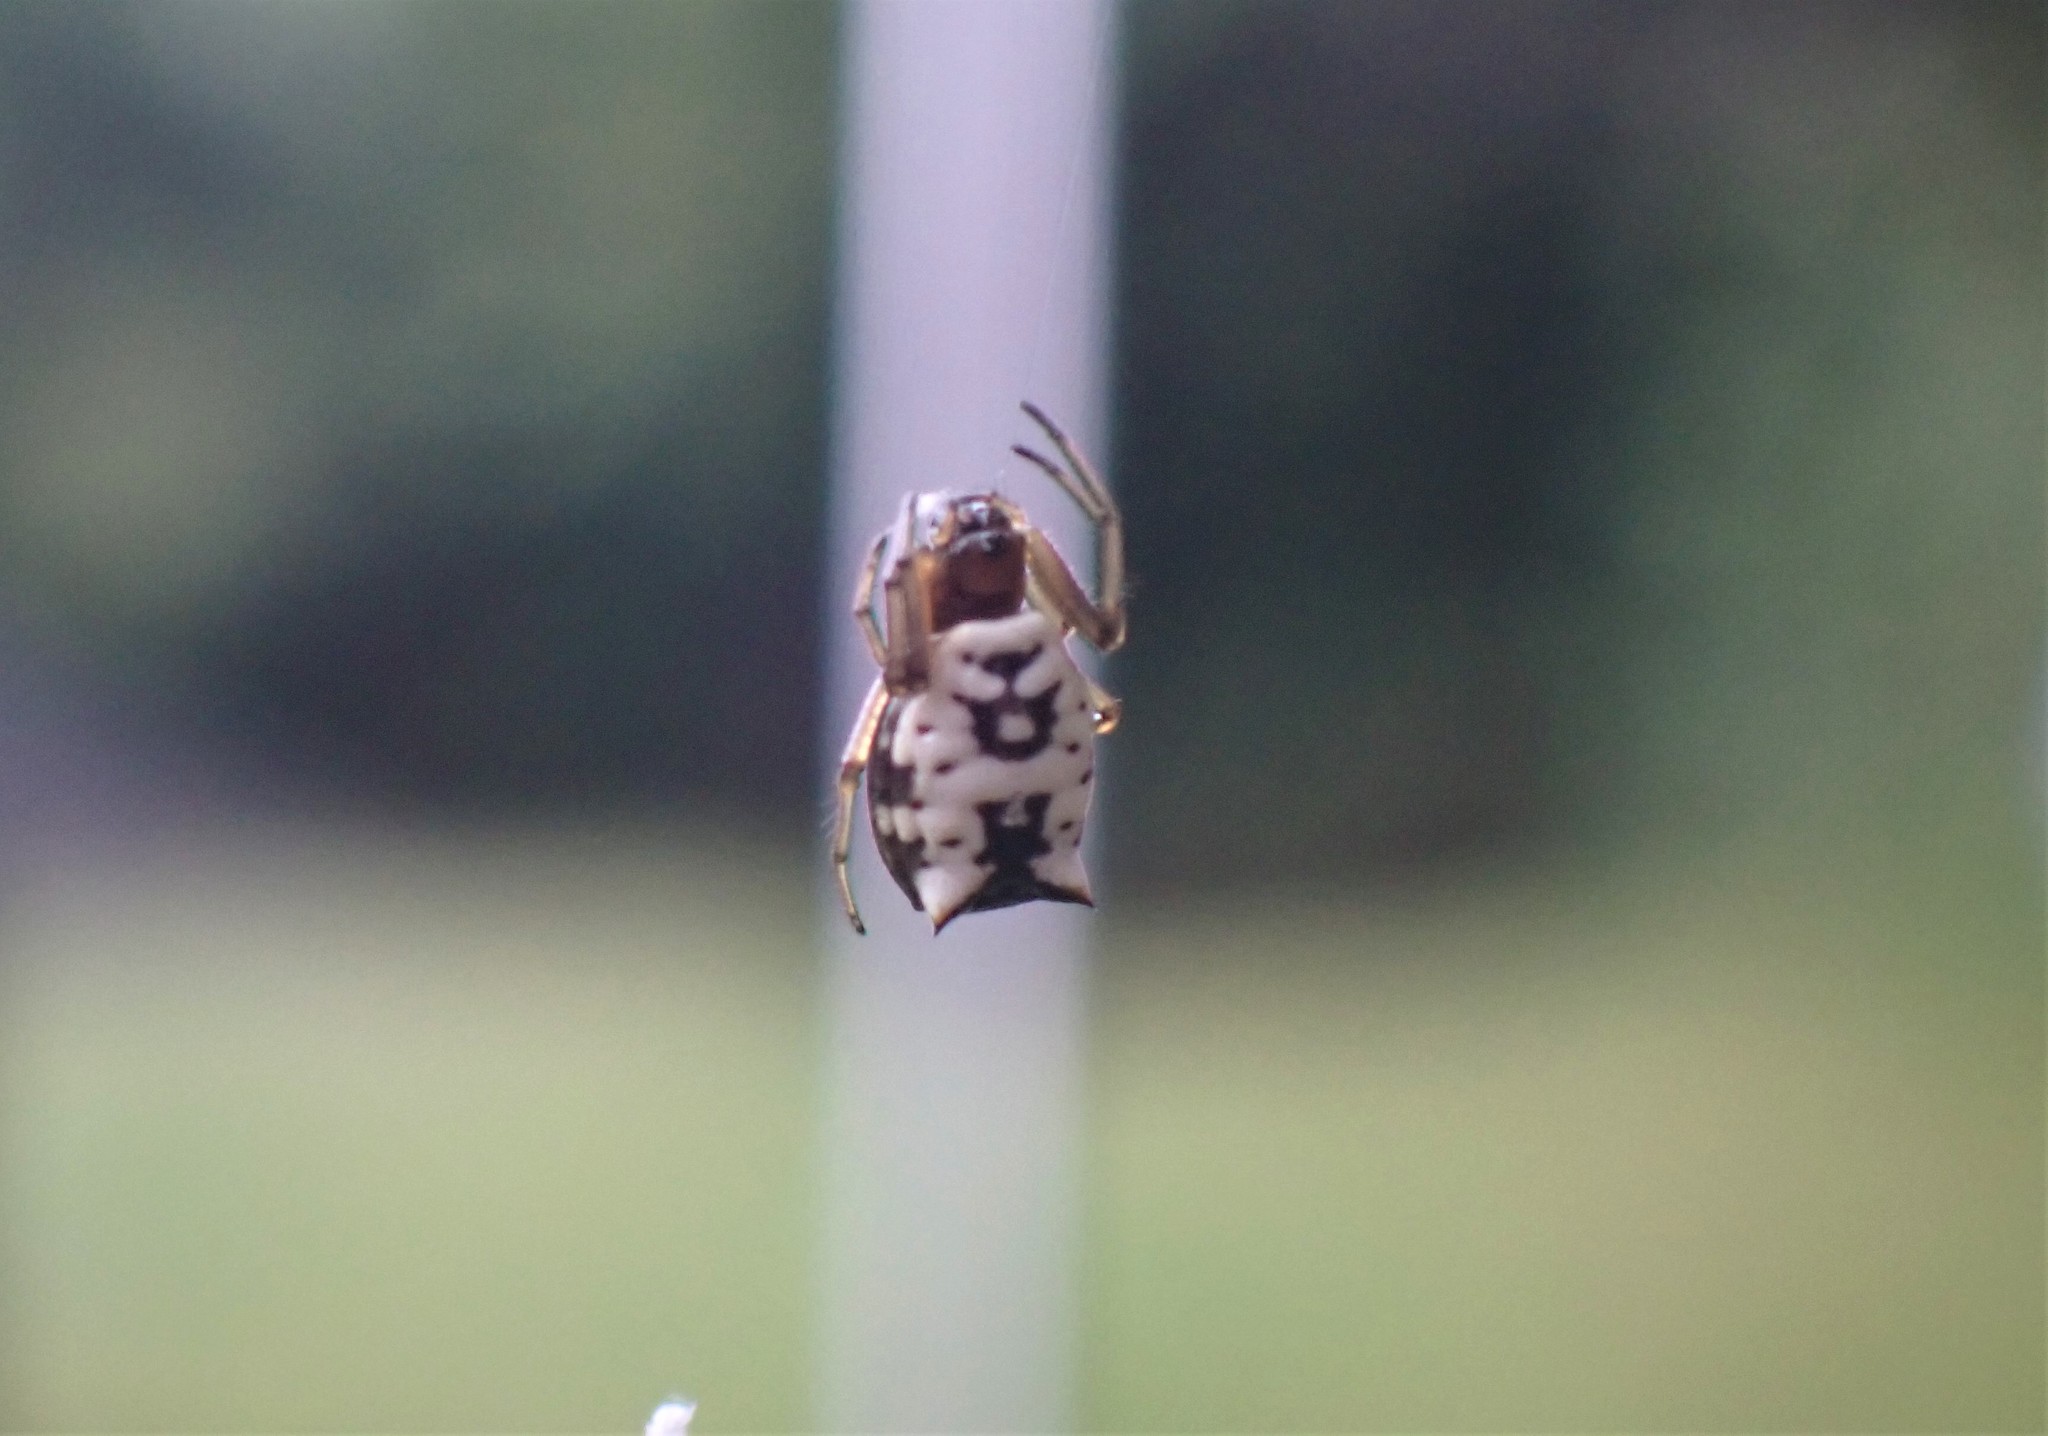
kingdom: Animalia
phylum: Arthropoda
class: Arachnida
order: Araneae
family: Araneidae
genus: Micrathena
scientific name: Micrathena mitrata
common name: Orb weavers
